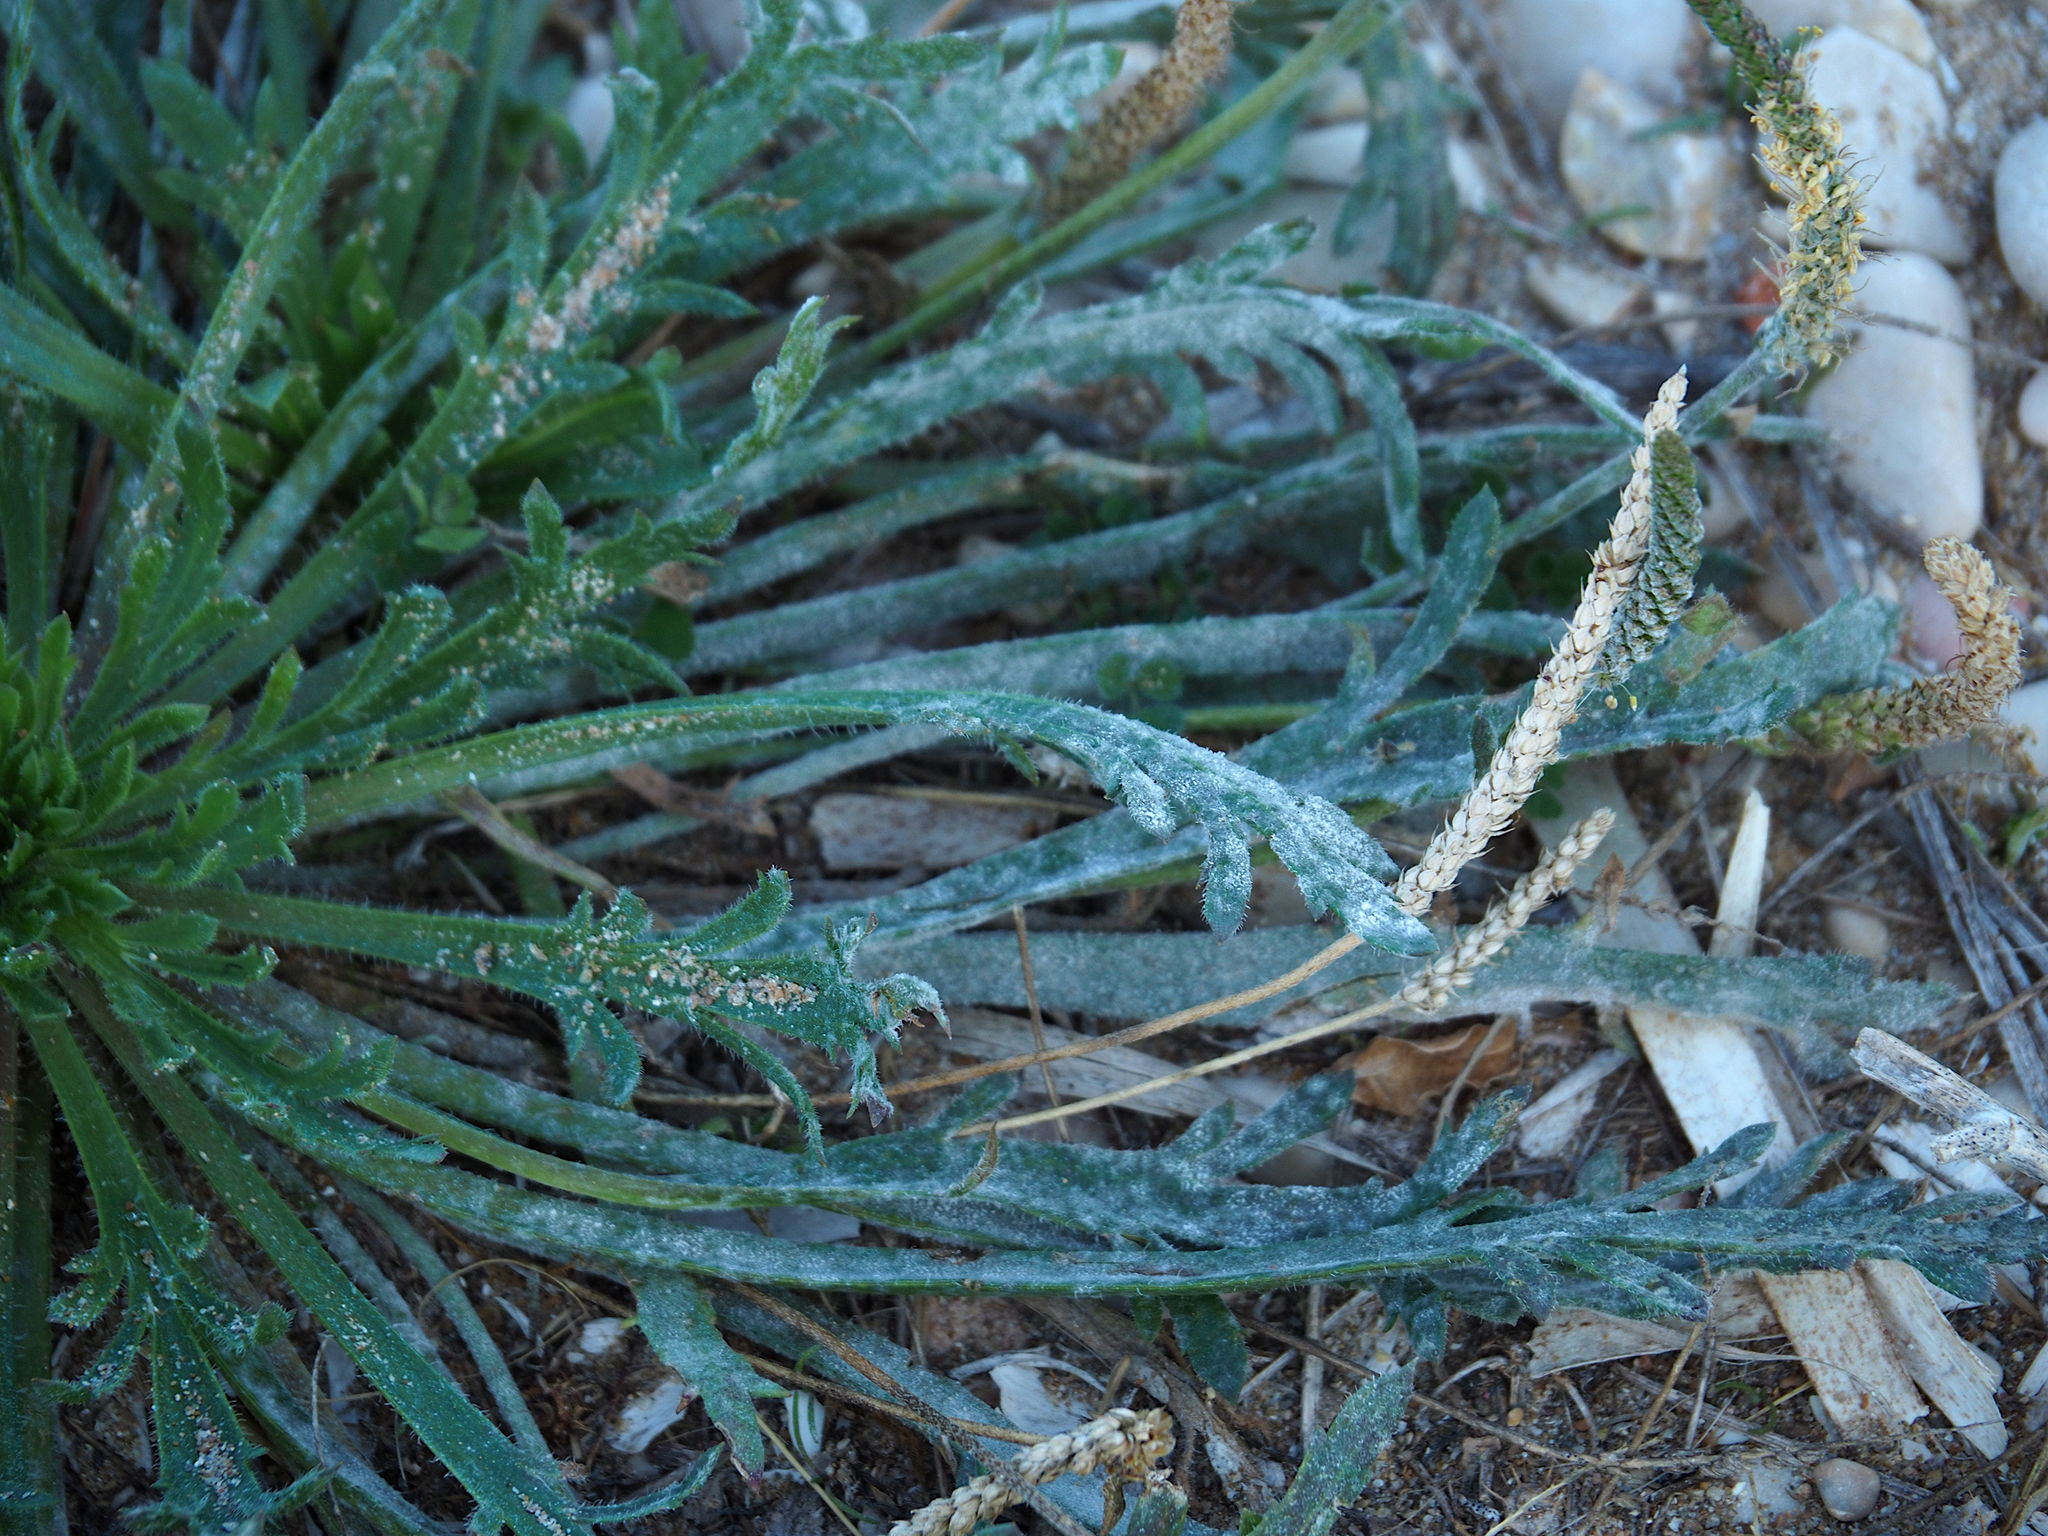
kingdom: Plantae
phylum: Tracheophyta
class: Magnoliopsida
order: Lamiales
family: Plantaginaceae
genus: Plantago
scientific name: Plantago coronopus
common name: Buck's-horn plantain
